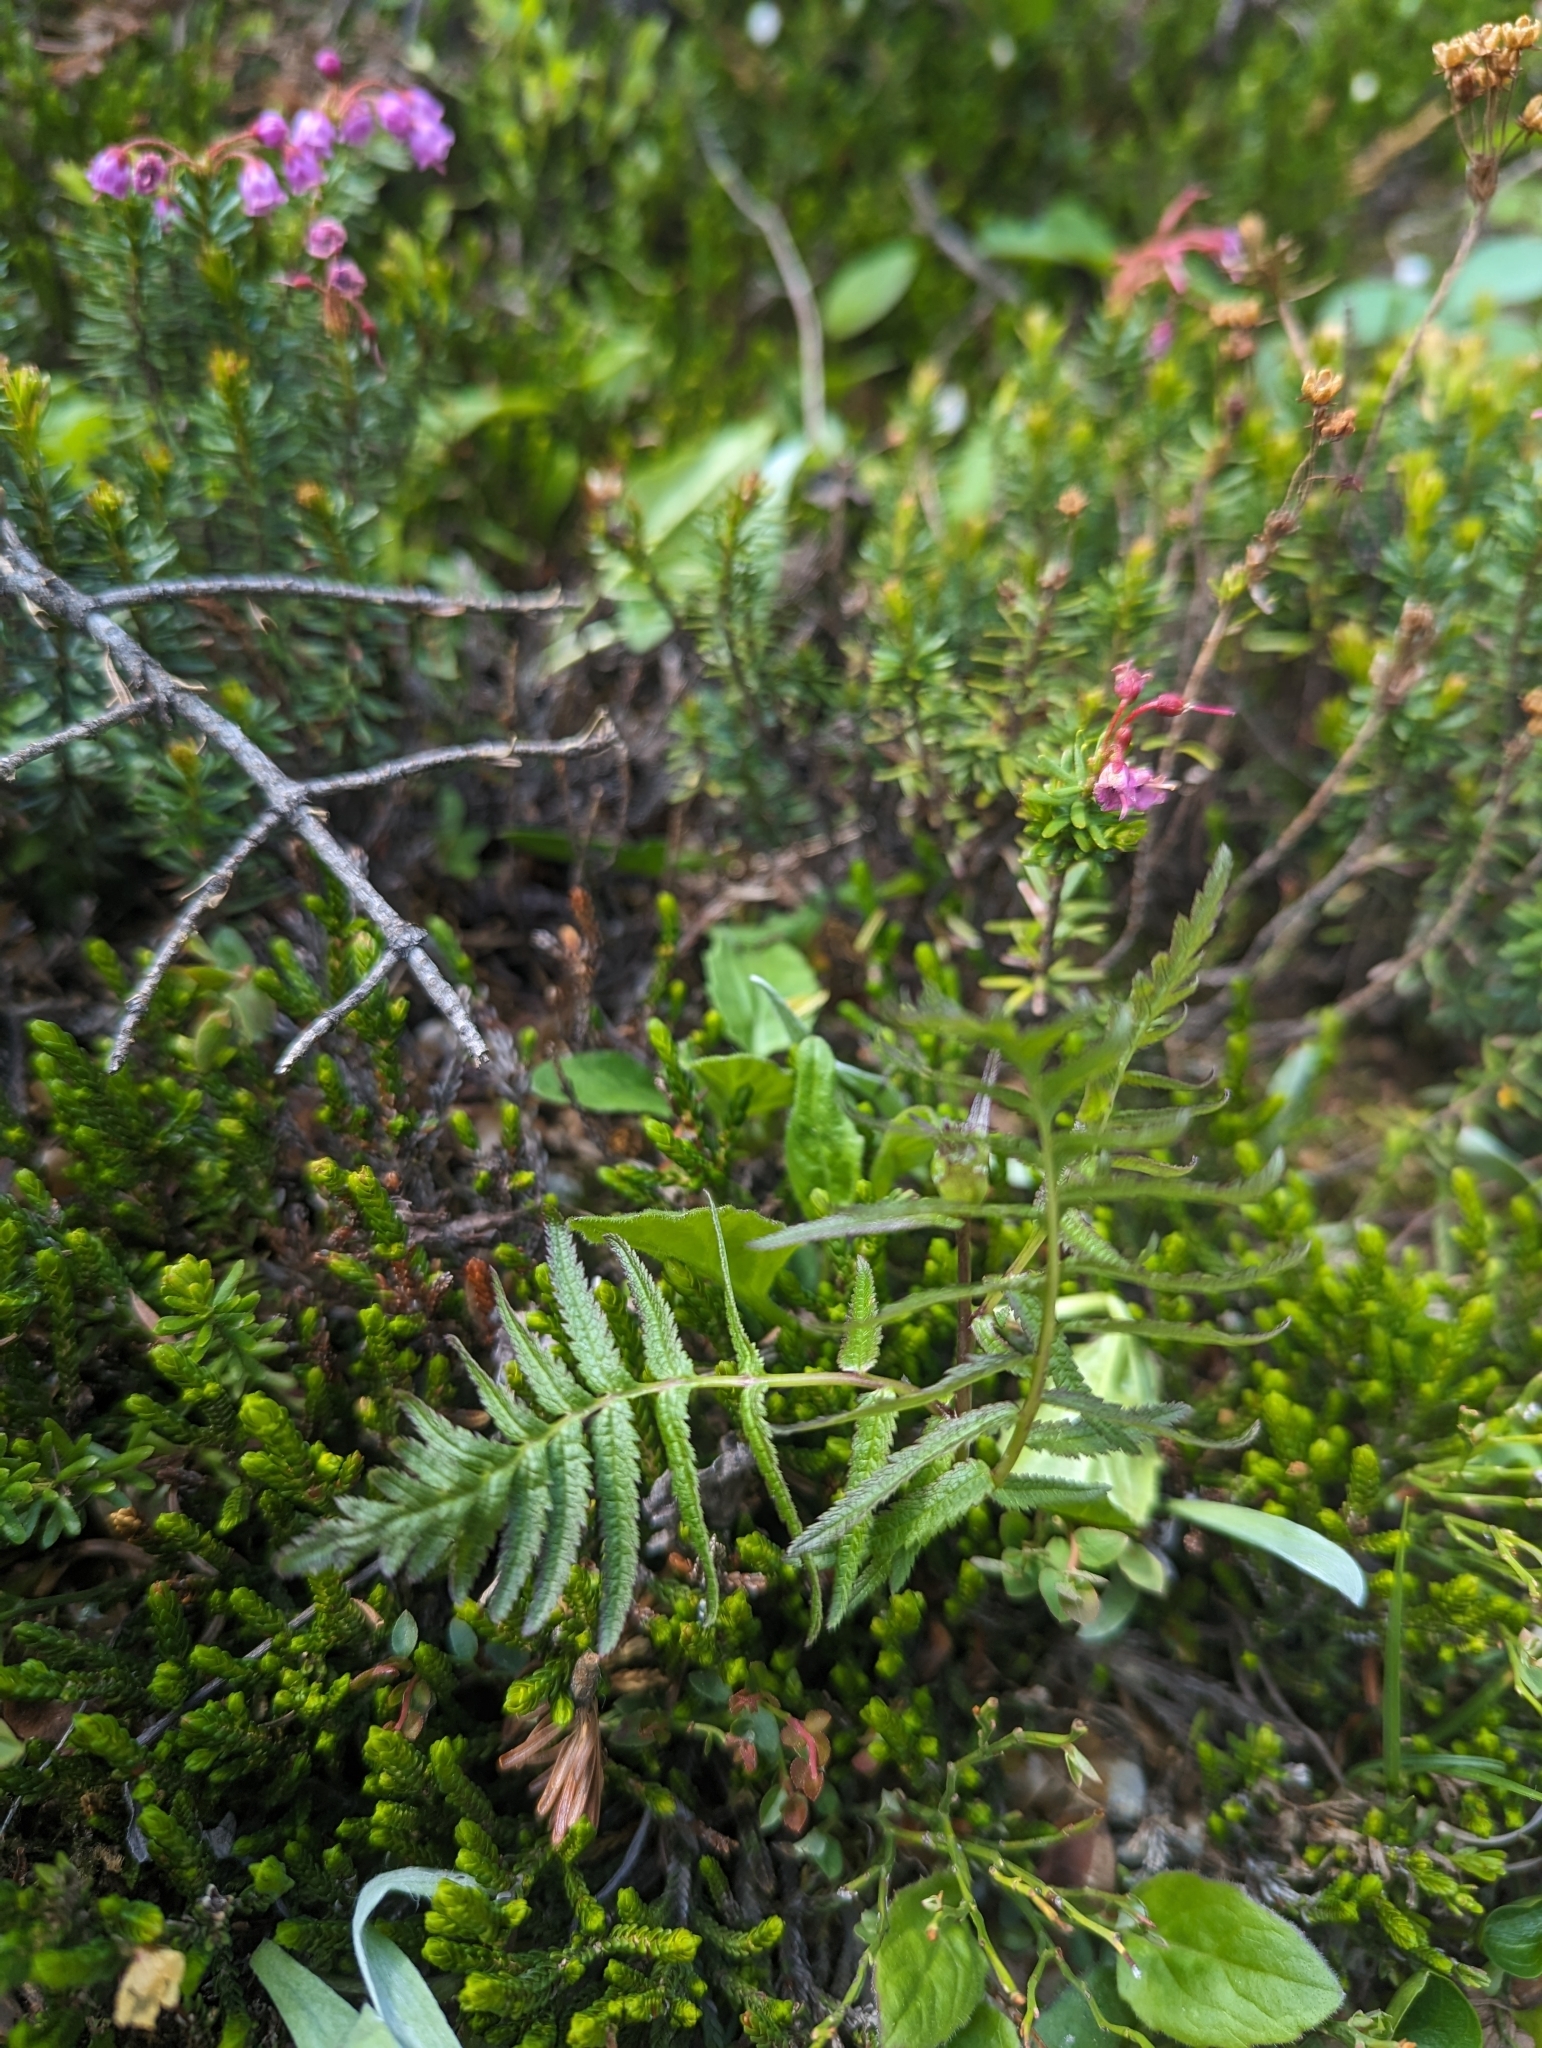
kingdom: Plantae
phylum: Tracheophyta
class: Magnoliopsida
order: Lamiales
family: Orobanchaceae
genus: Pedicularis
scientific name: Pedicularis bracteosa
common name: Bracted lousewort
